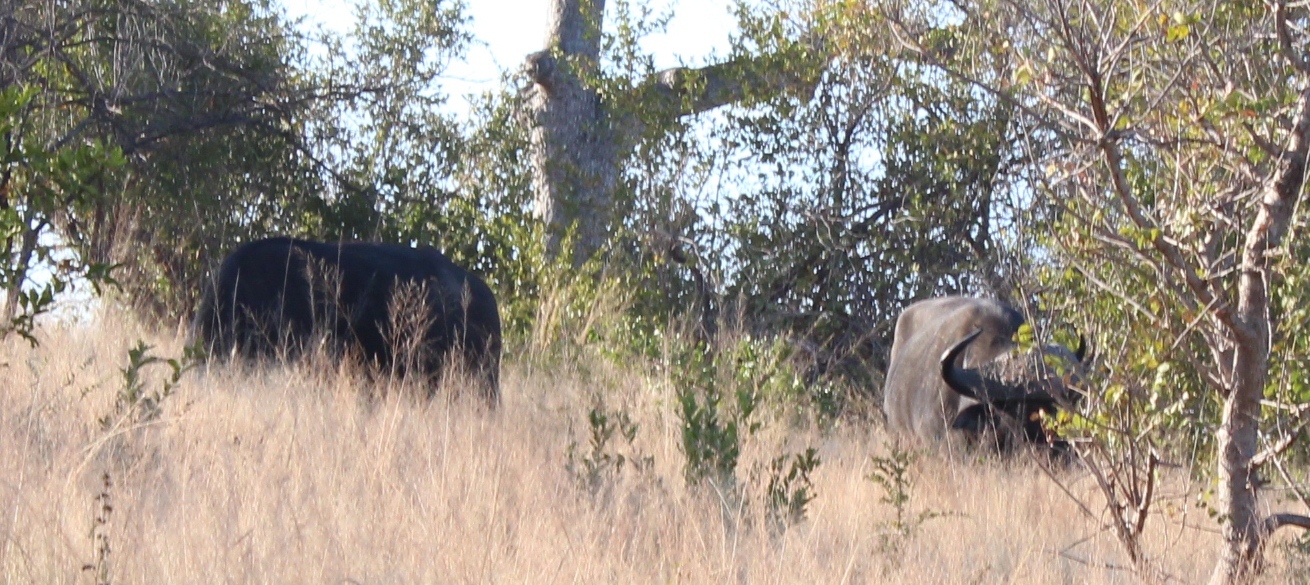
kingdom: Animalia
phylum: Chordata
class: Mammalia
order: Artiodactyla
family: Bovidae
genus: Syncerus
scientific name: Syncerus caffer
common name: African buffalo
